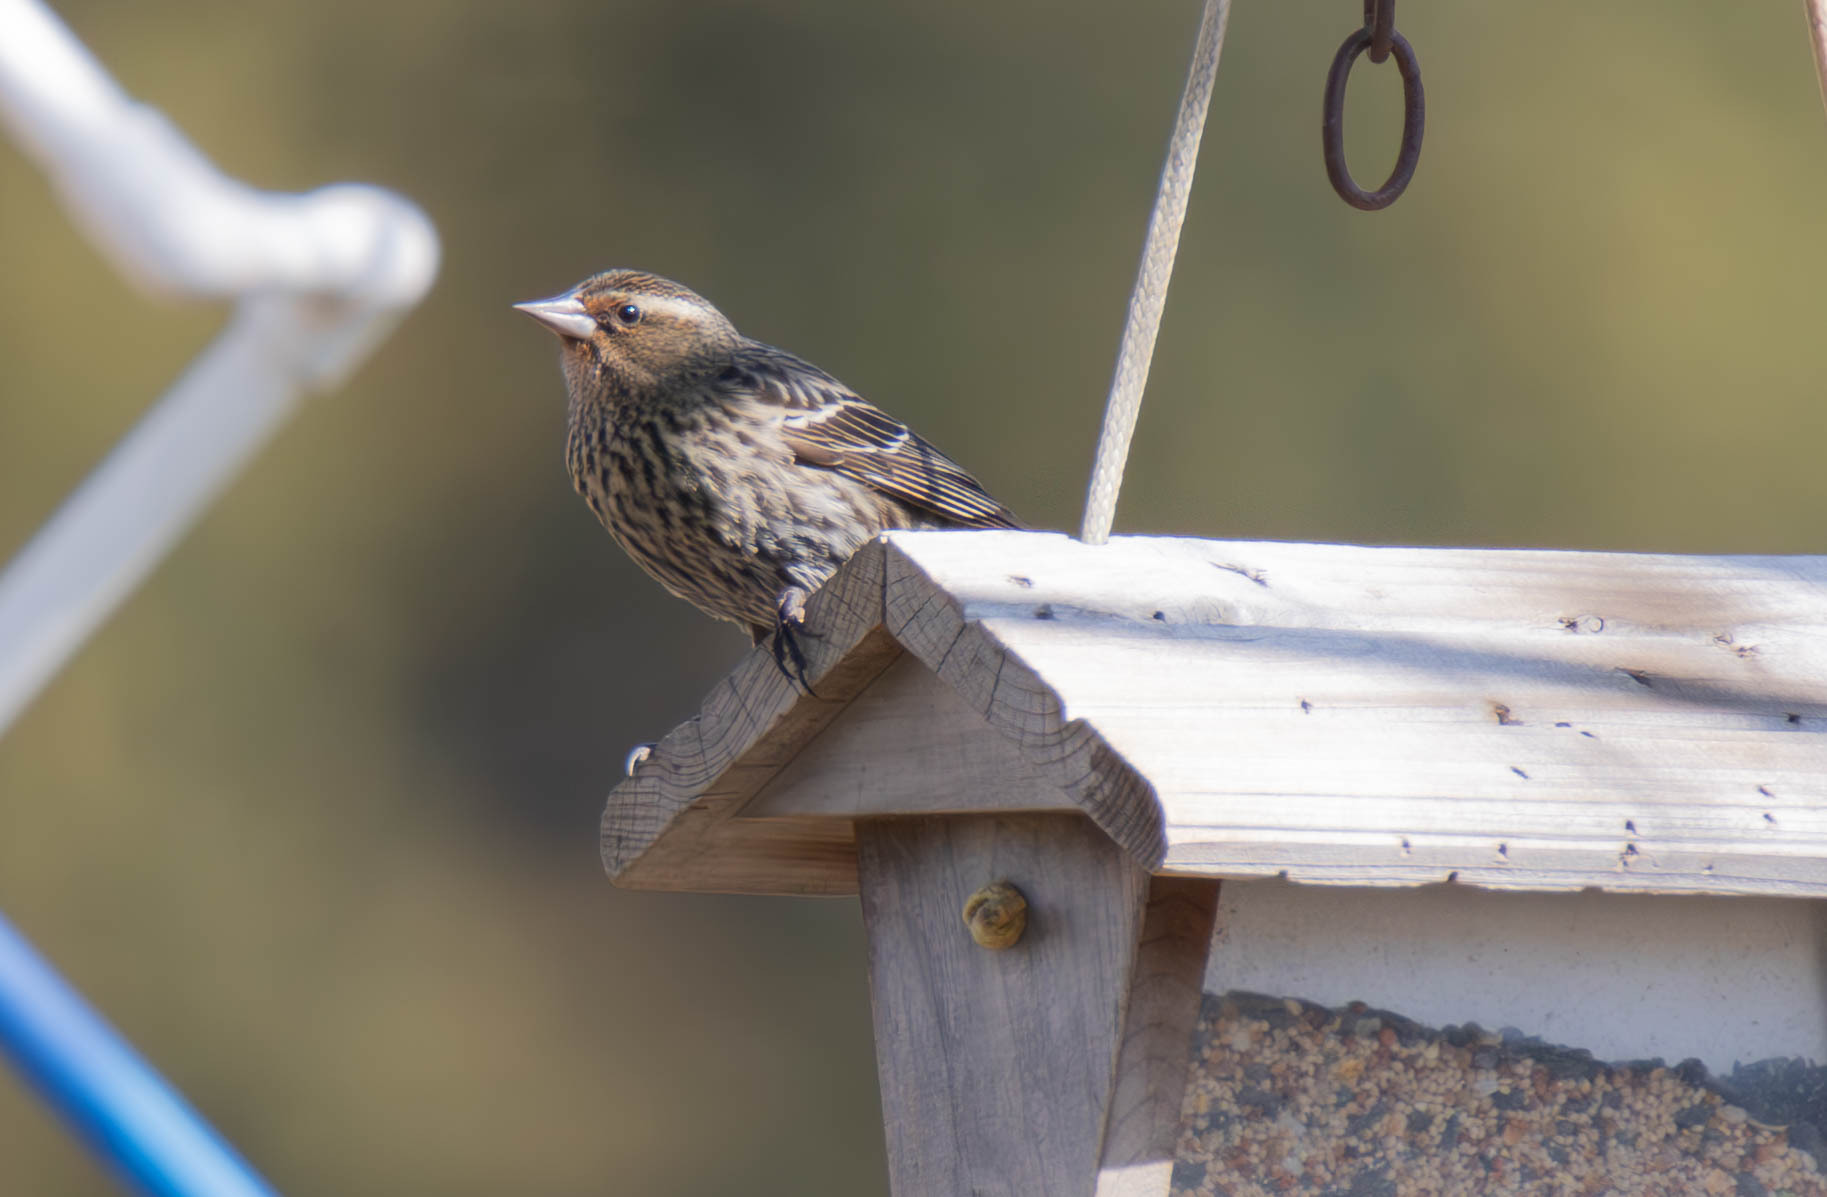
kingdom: Animalia
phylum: Chordata
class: Aves
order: Passeriformes
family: Icteridae
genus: Agelaius
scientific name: Agelaius phoeniceus
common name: Red-winged blackbird
